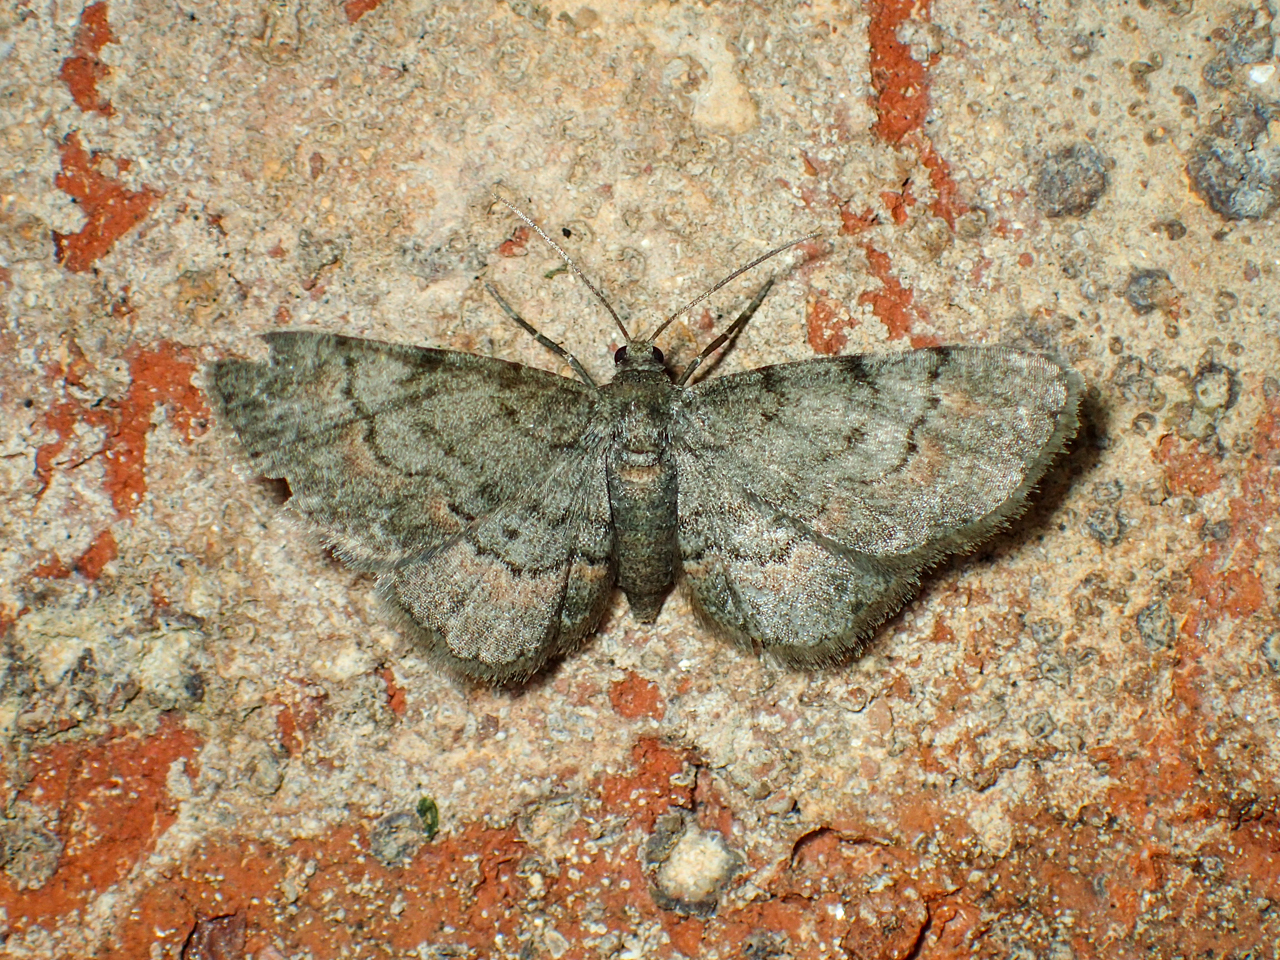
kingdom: Animalia
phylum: Arthropoda
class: Insecta
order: Lepidoptera
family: Geometridae
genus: Glenoides
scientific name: Glenoides texanaria
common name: Texas gray
